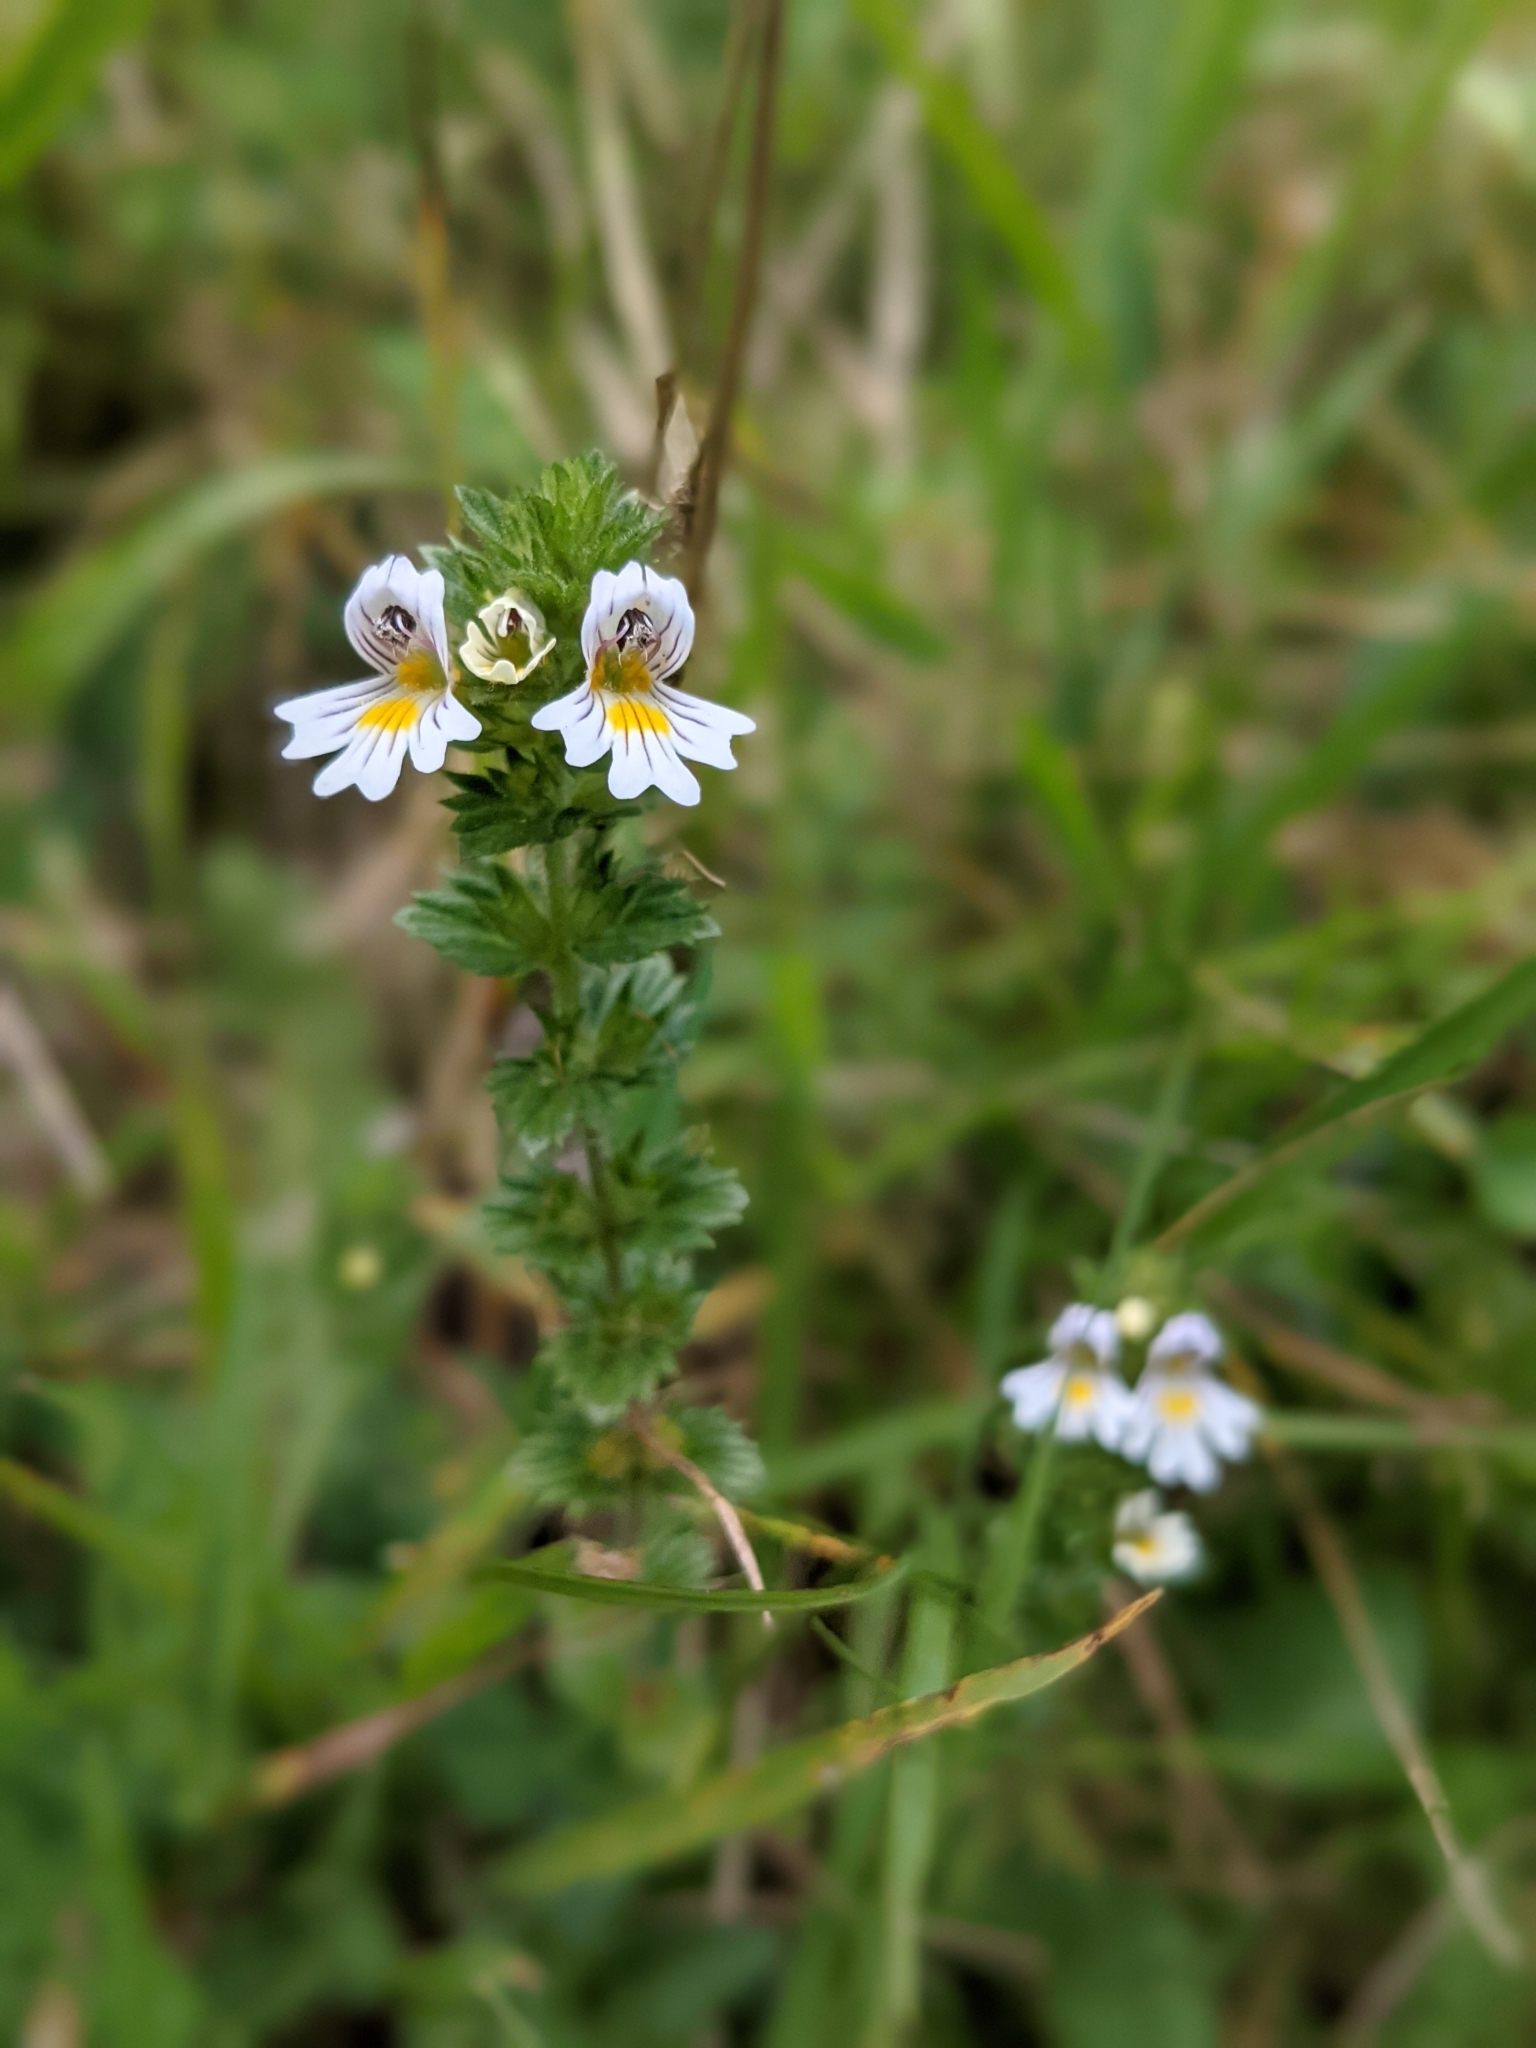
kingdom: Plantae
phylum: Tracheophyta
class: Magnoliopsida
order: Lamiales
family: Orobanchaceae
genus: Euphrasia
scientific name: Euphrasia officinalis
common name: Eyebright
